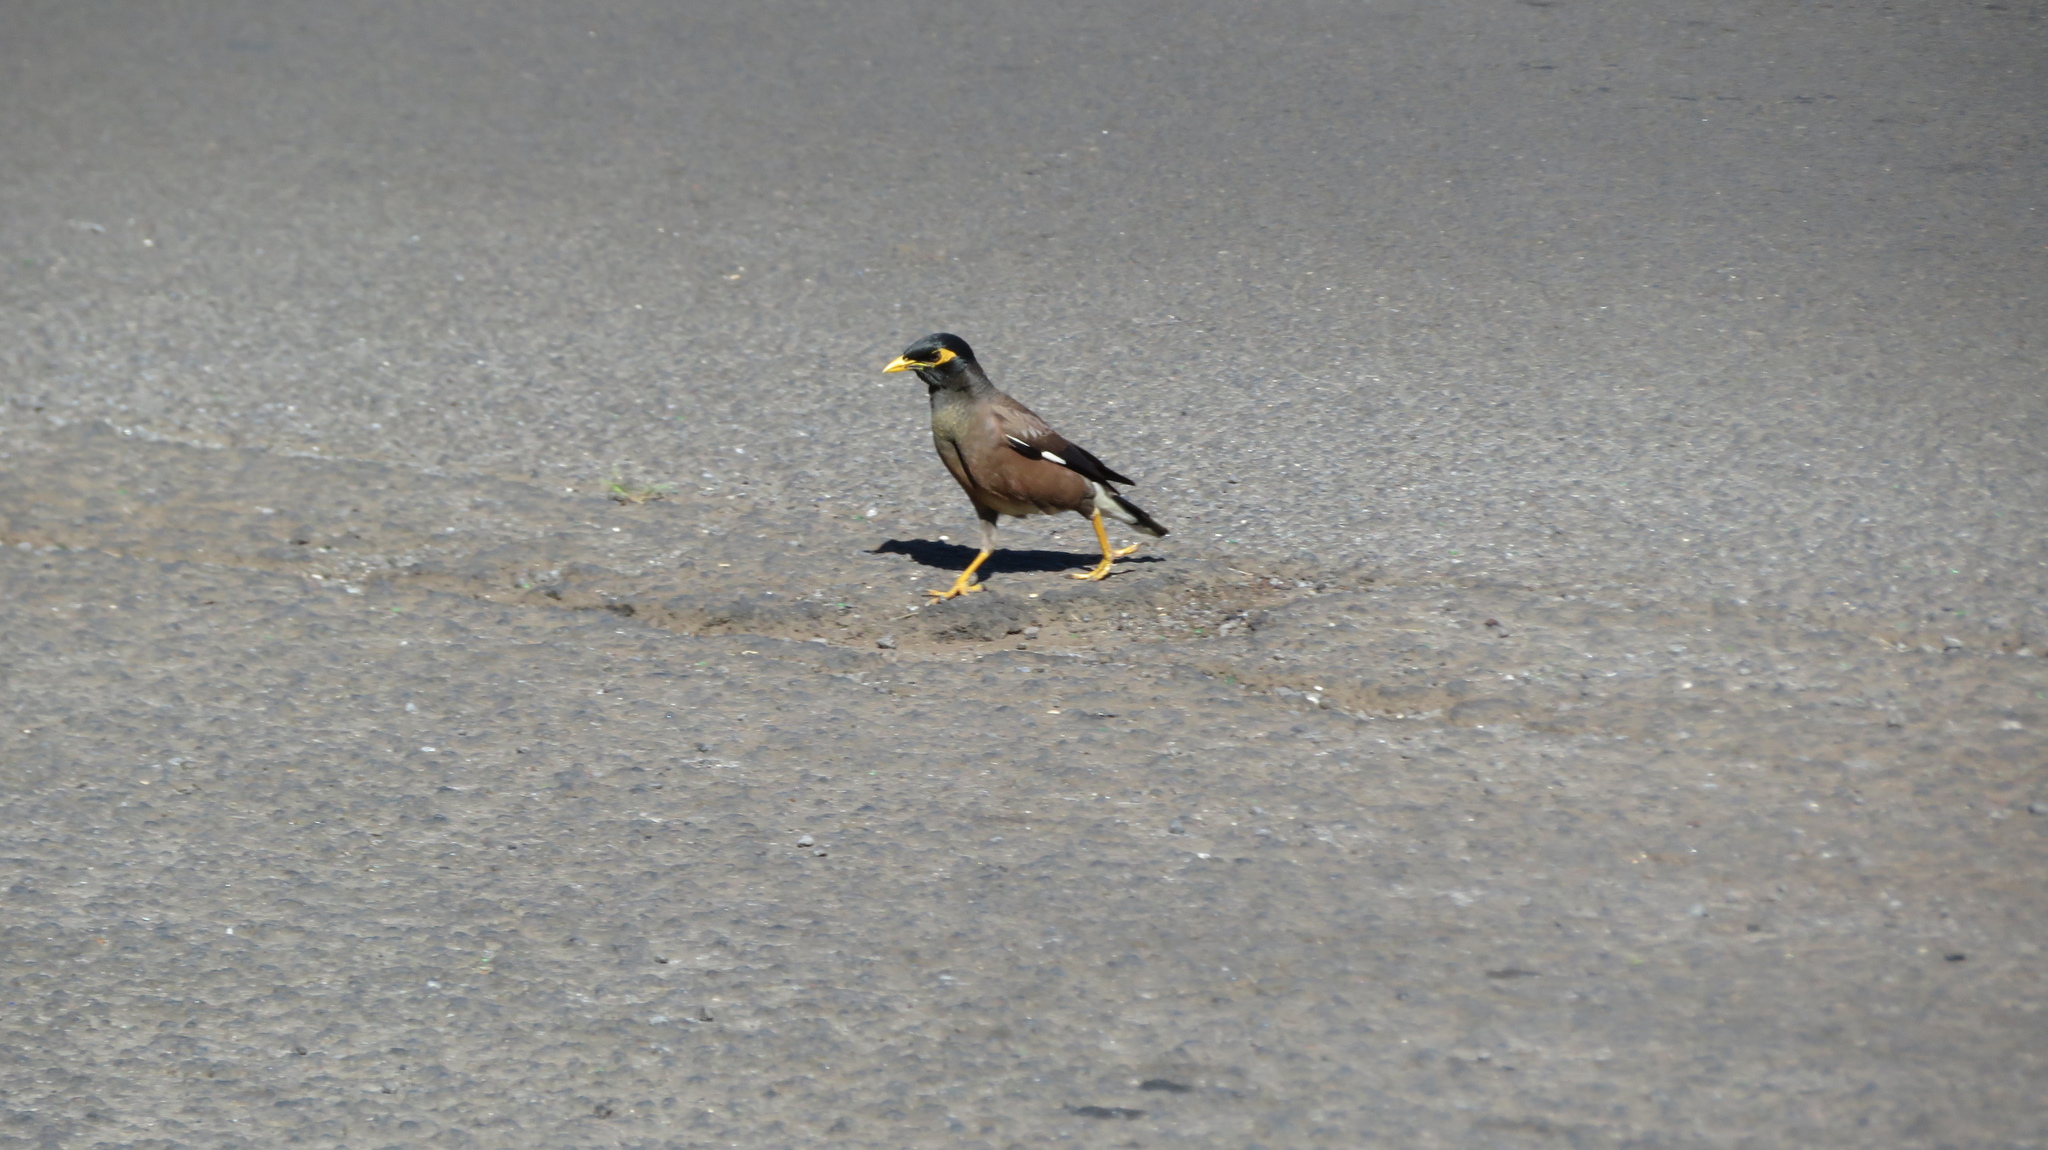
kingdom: Animalia
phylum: Chordata
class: Aves
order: Passeriformes
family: Sturnidae
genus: Acridotheres
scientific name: Acridotheres tristis
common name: Common myna
